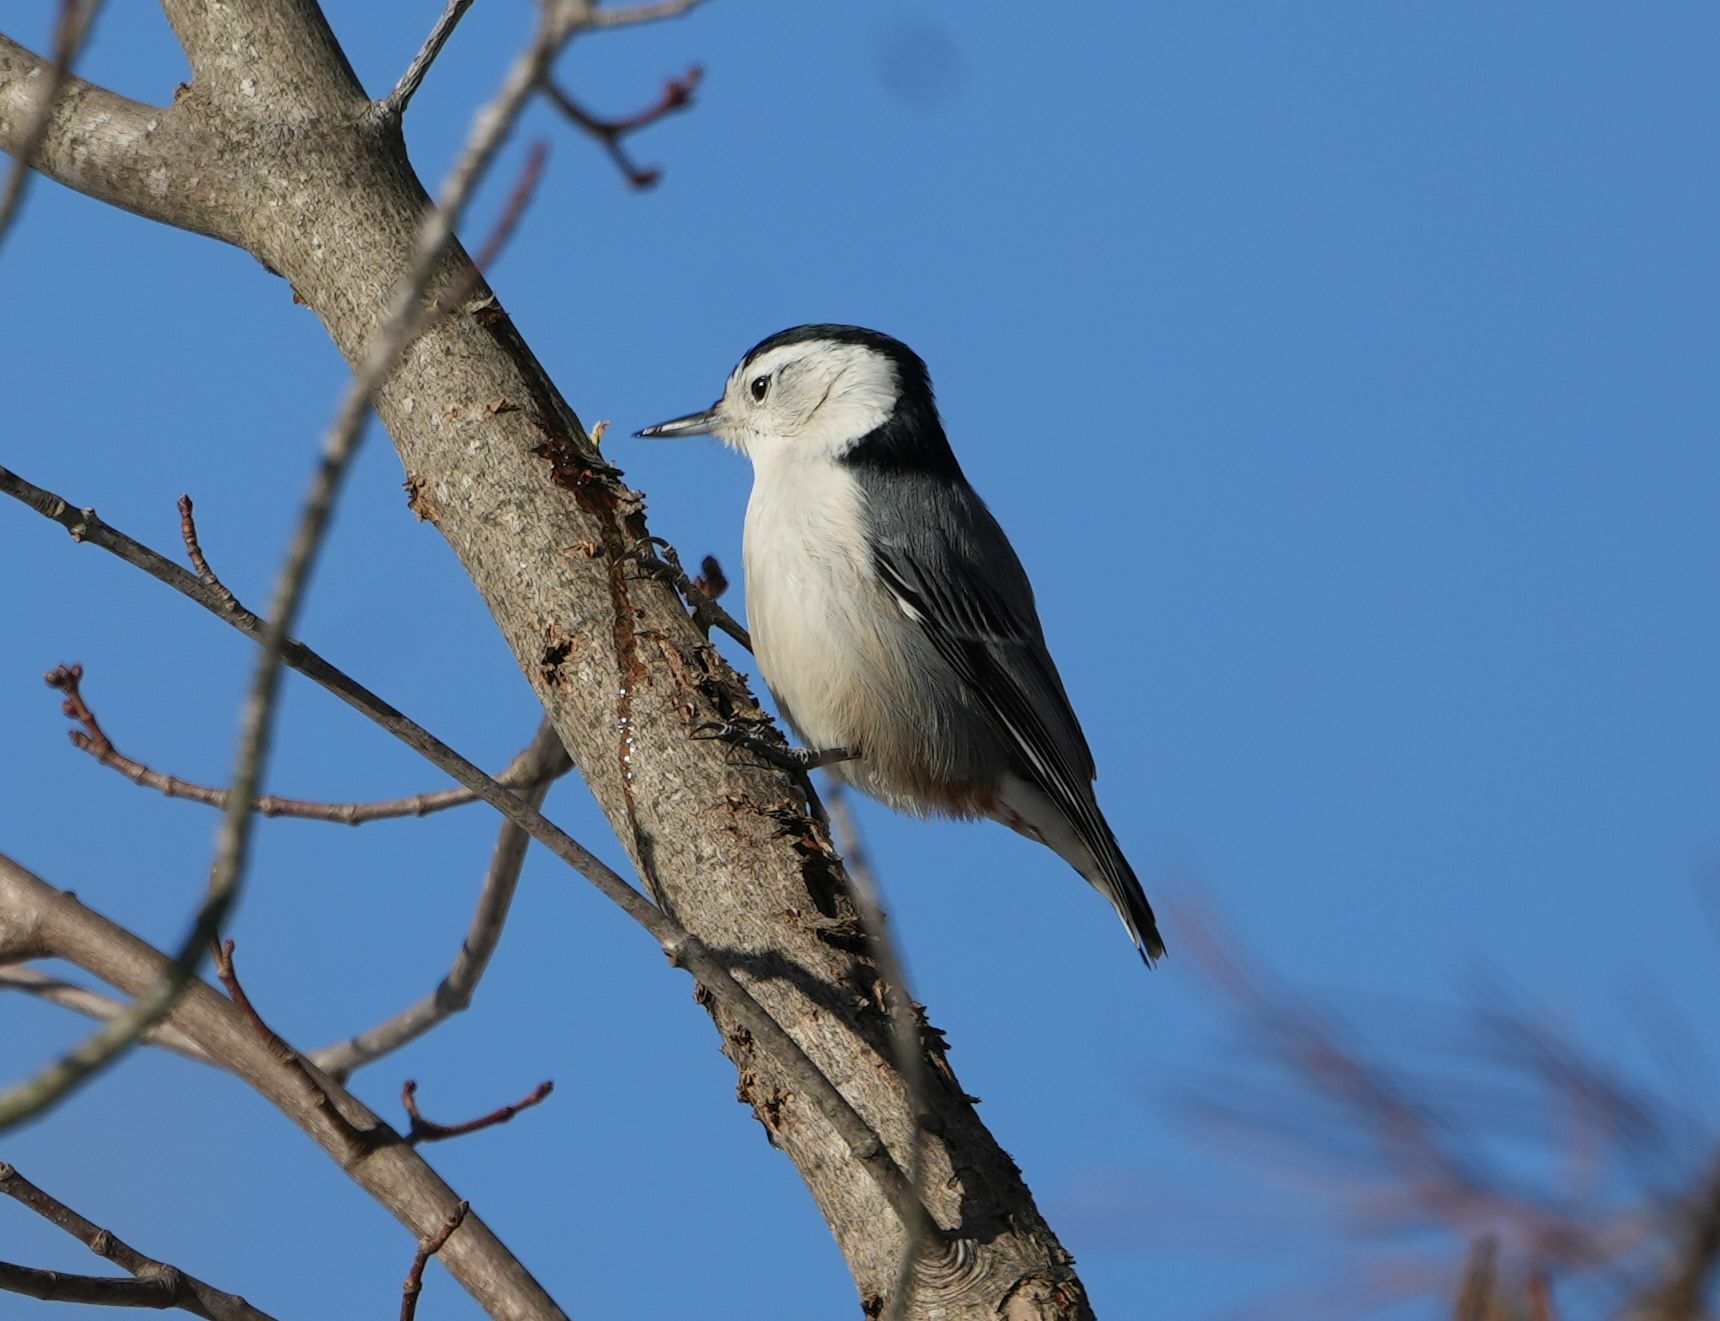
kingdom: Animalia
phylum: Chordata
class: Aves
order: Passeriformes
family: Sittidae
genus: Sitta
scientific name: Sitta carolinensis
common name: White-breasted nuthatch
